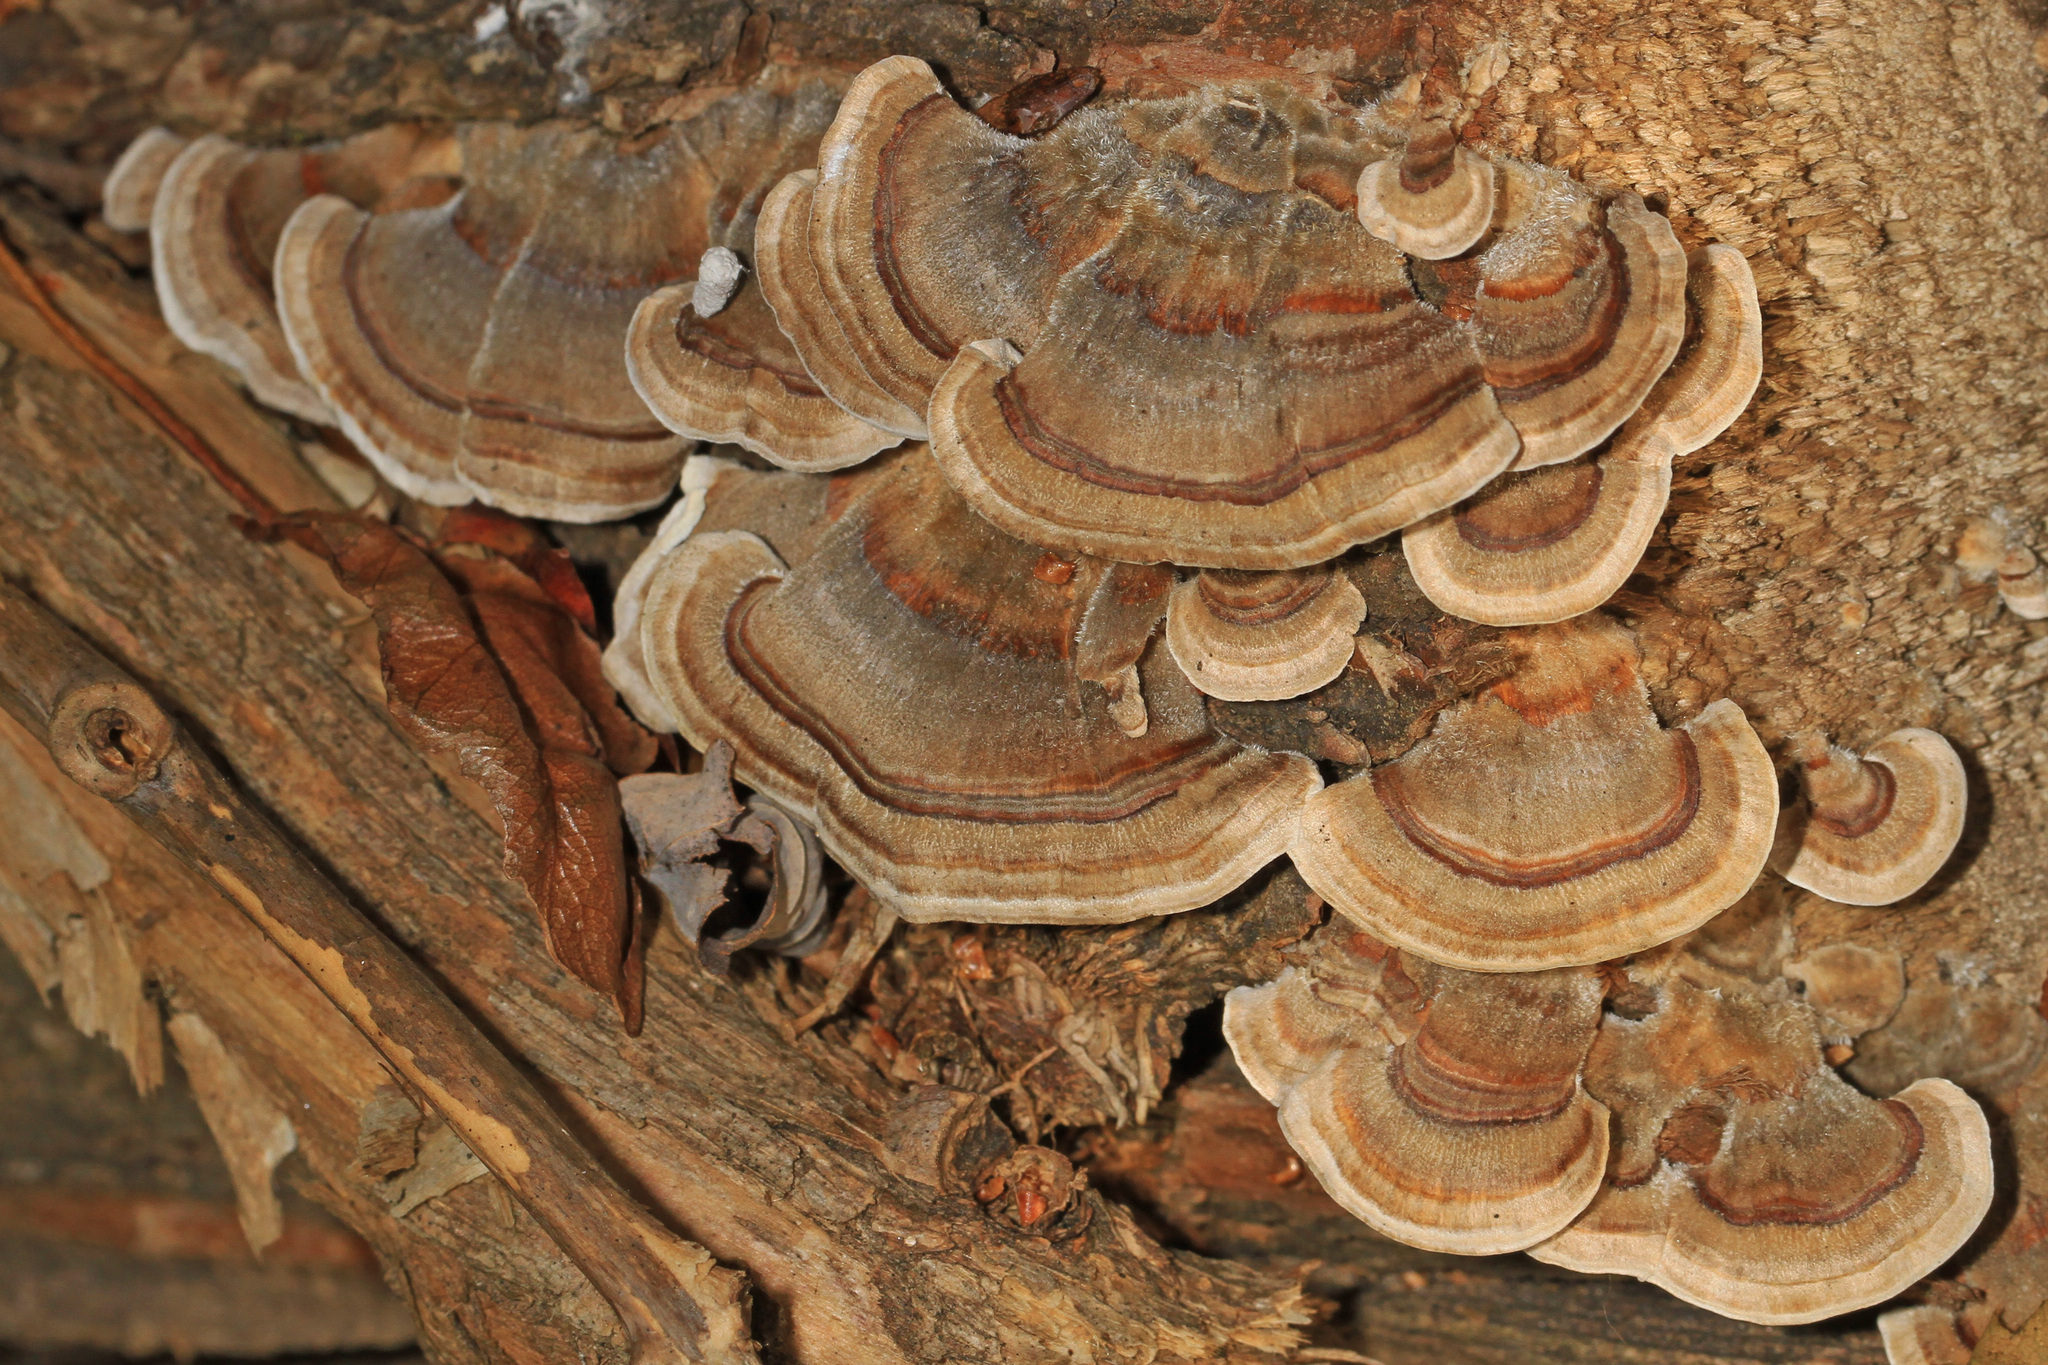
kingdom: Fungi
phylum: Basidiomycota
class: Agaricomycetes
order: Polyporales
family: Polyporaceae
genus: Trametes
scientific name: Trametes versicolor
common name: Turkeytail
